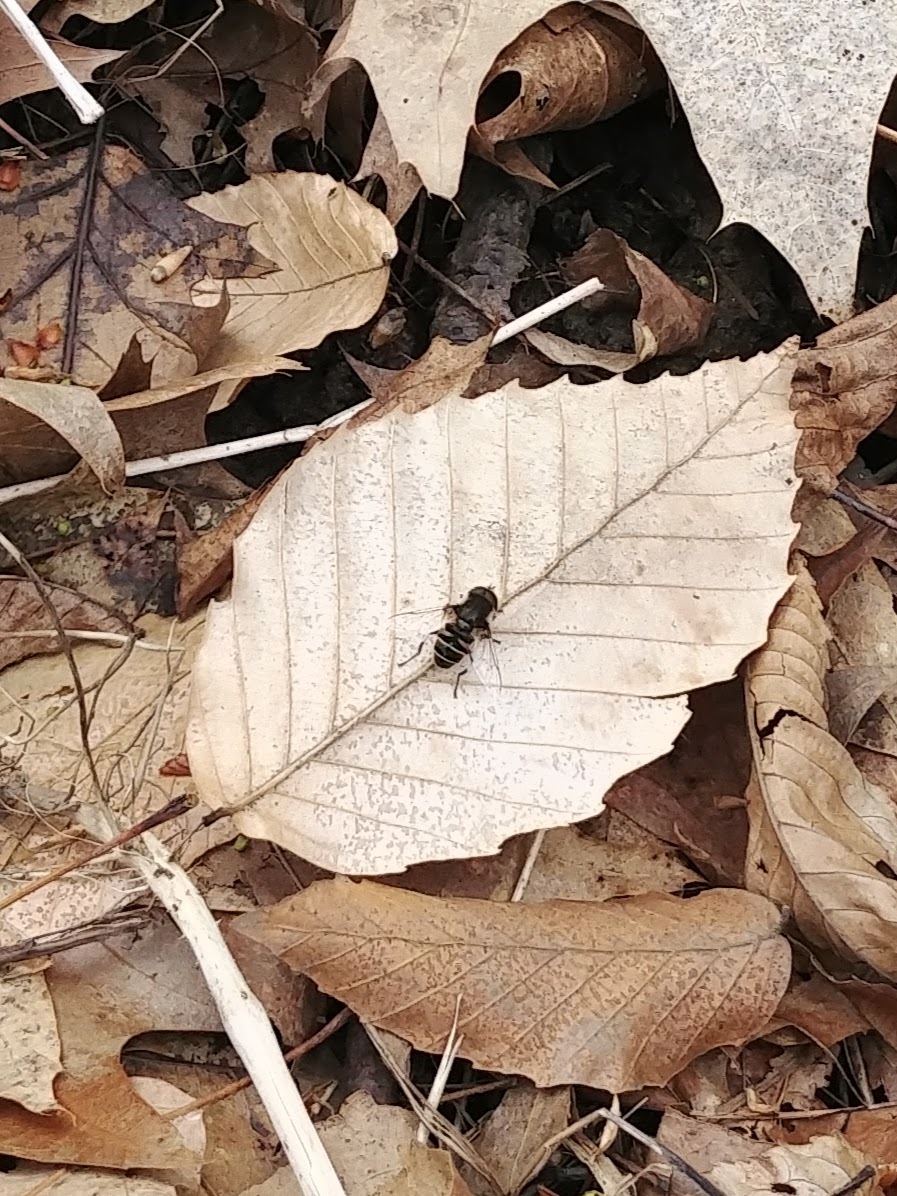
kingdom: Animalia
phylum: Arthropoda
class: Insecta
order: Diptera
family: Syrphidae
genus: Eristalis
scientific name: Eristalis dimidiata
